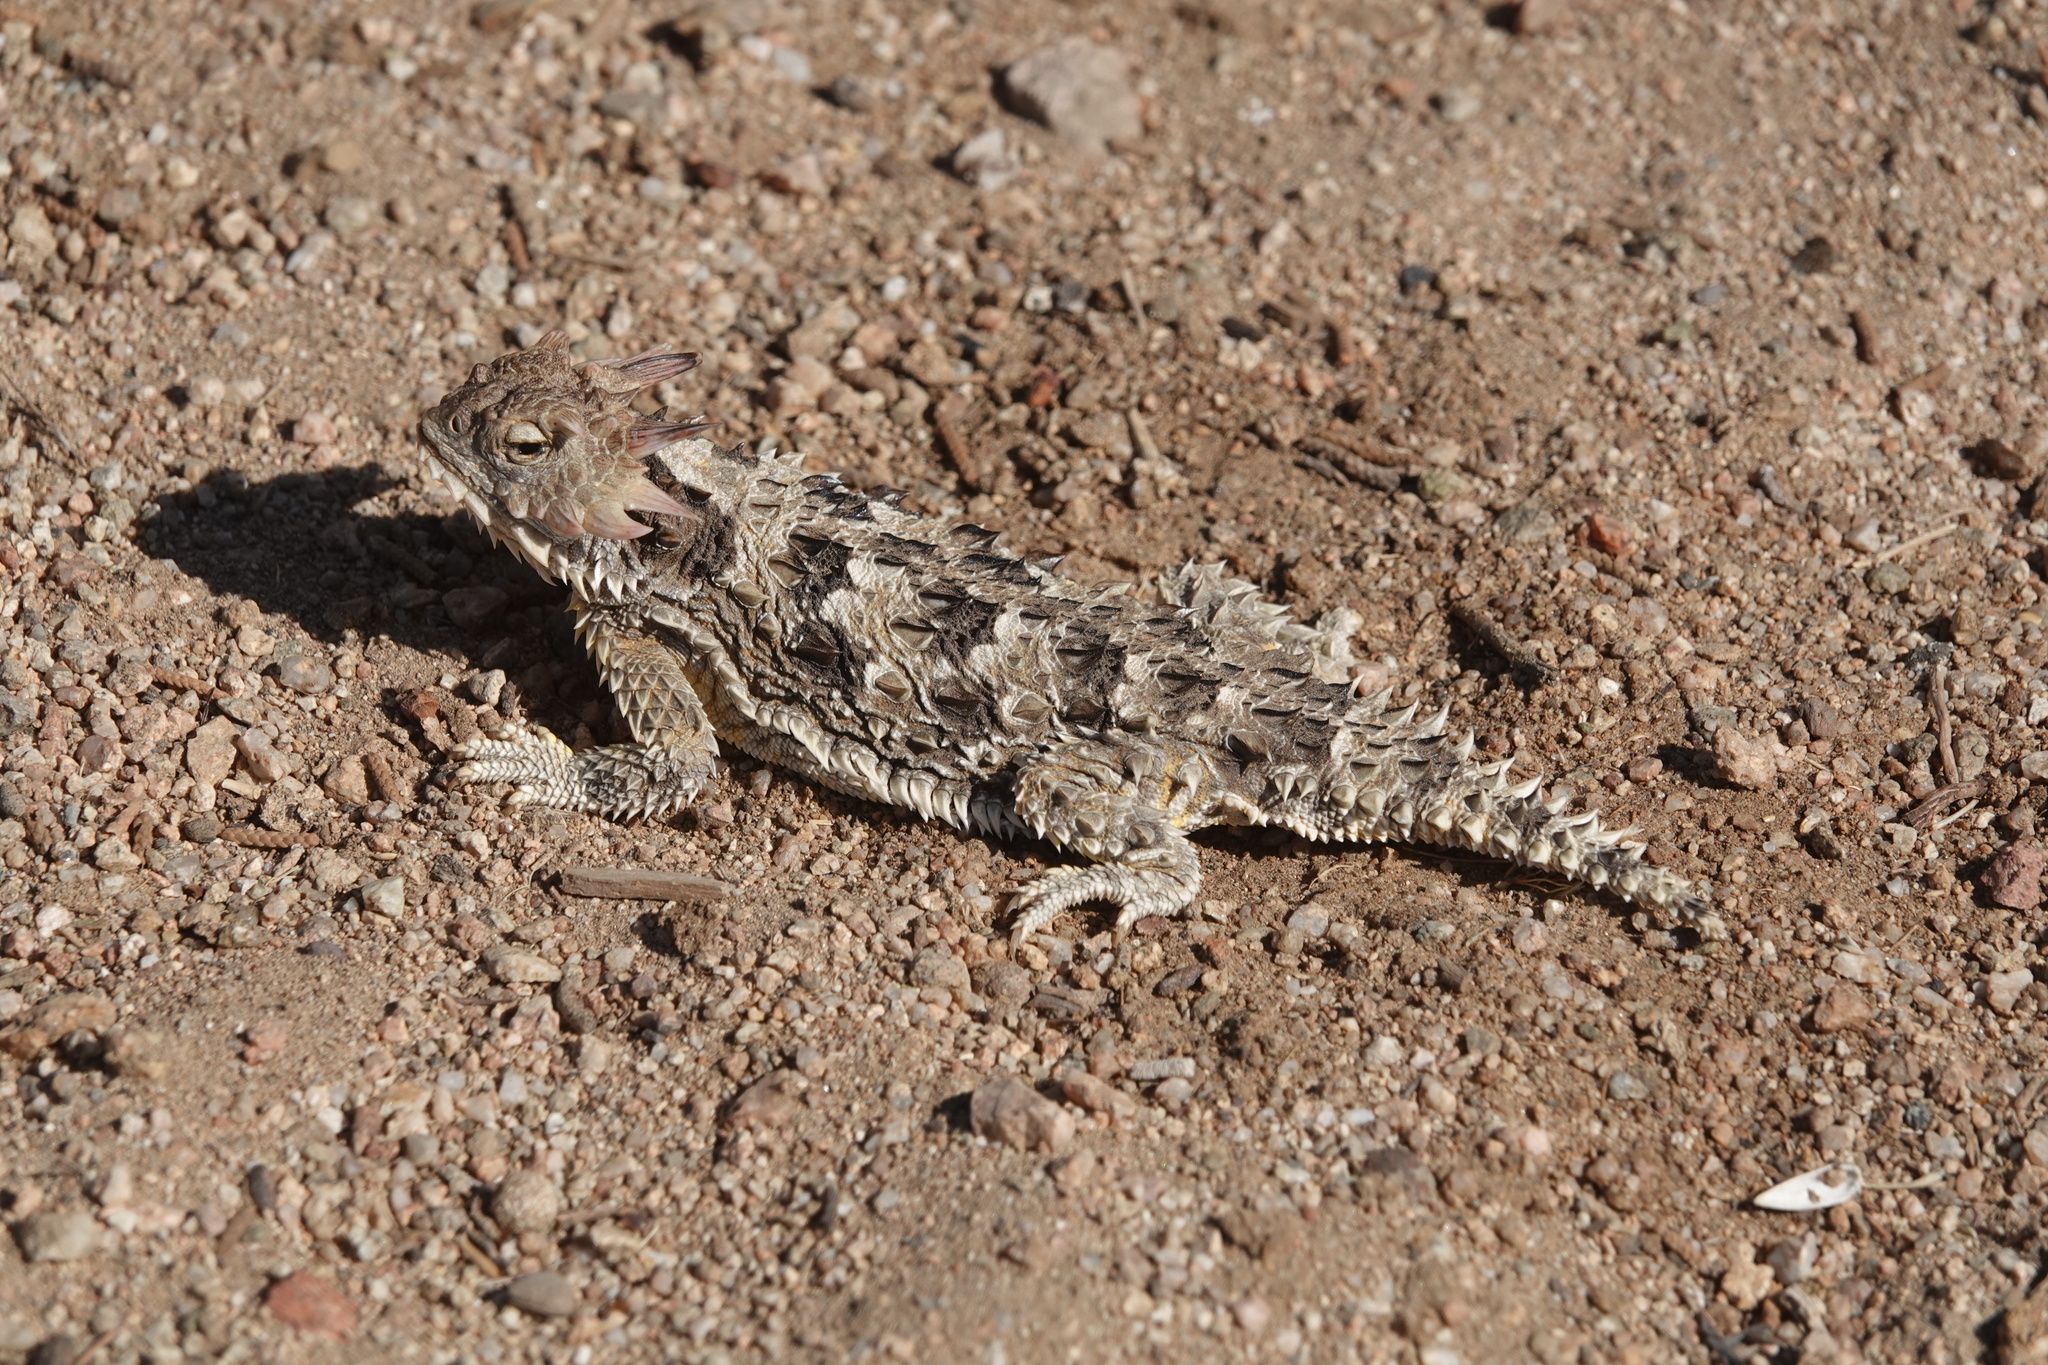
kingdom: Animalia
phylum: Chordata
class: Squamata
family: Phrynosomatidae
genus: Phrynosoma
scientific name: Phrynosoma blainvillii
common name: San diego horned lizard
